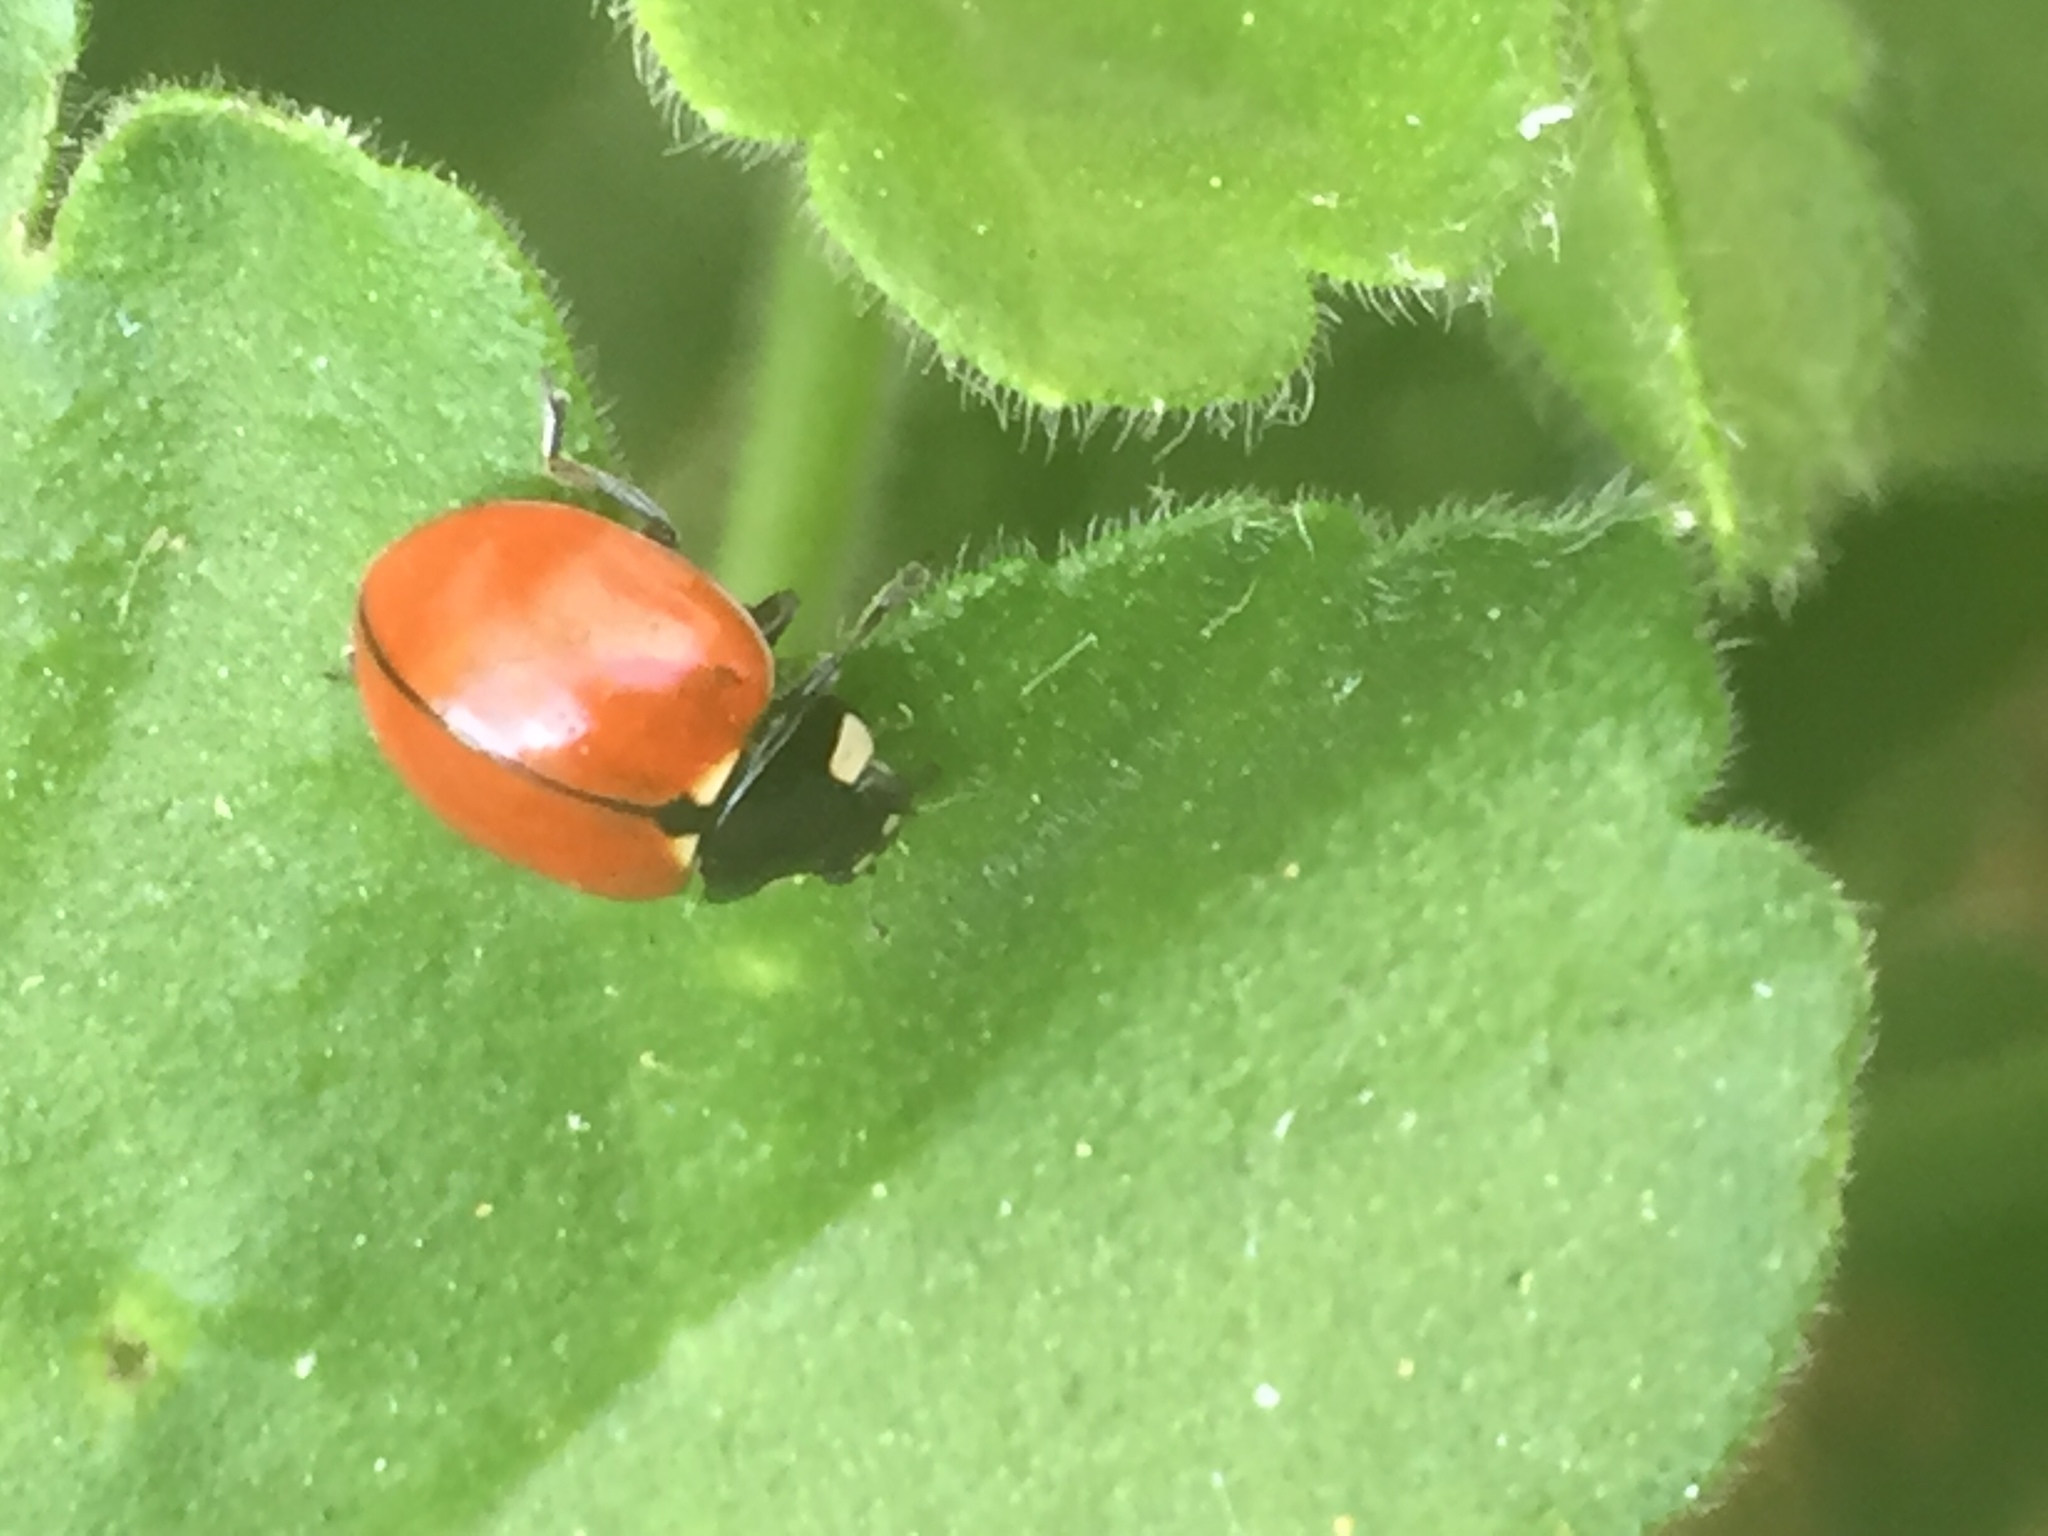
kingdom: Animalia
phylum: Arthropoda
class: Insecta
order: Coleoptera
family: Coccinellidae
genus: Coccinella
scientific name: Coccinella californica
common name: Lady beetle
